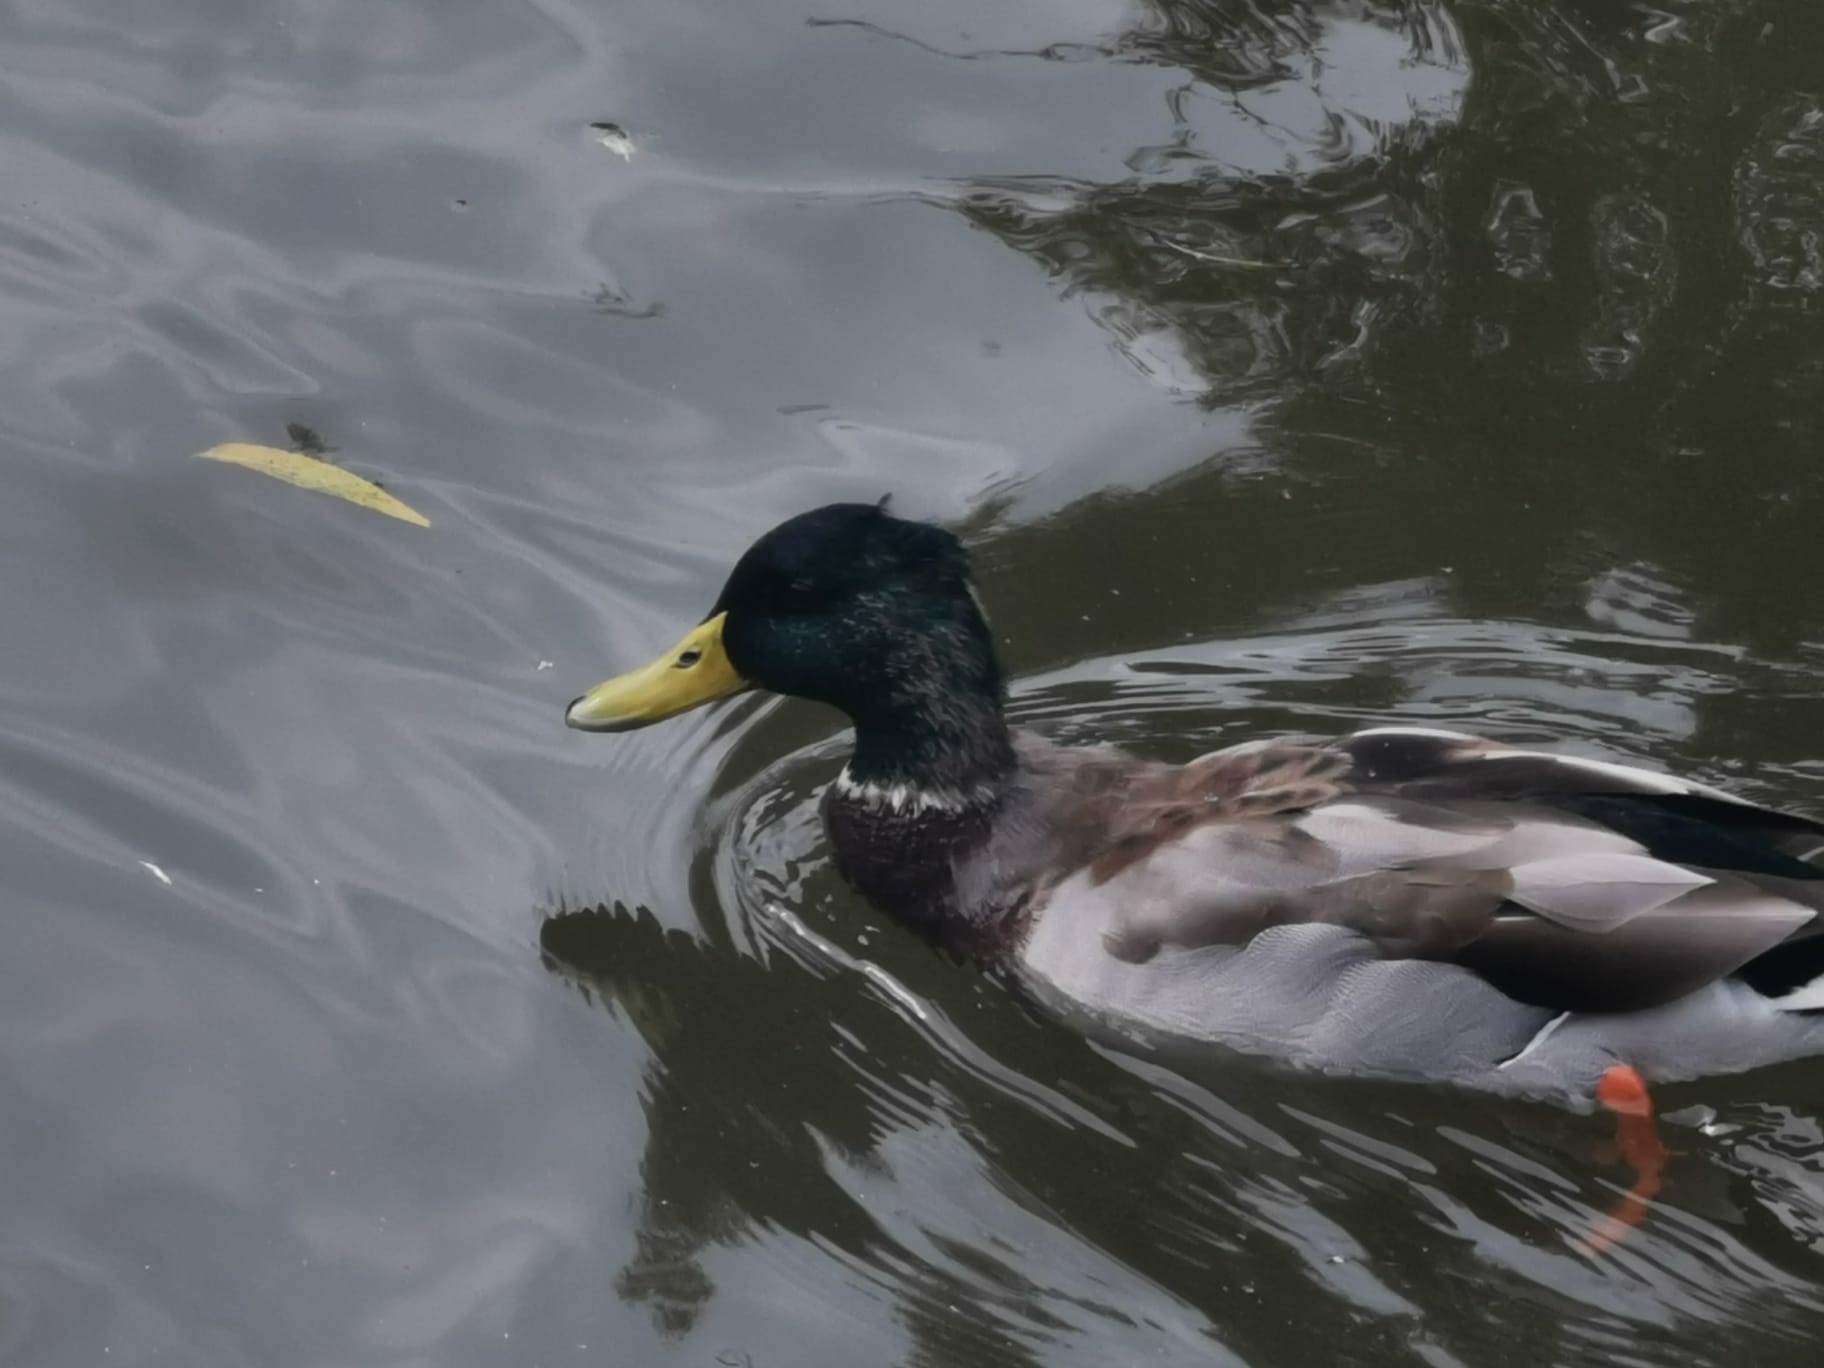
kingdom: Animalia
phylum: Chordata
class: Aves
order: Anseriformes
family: Anatidae
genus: Anas
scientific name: Anas platyrhynchos
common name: Mallard
